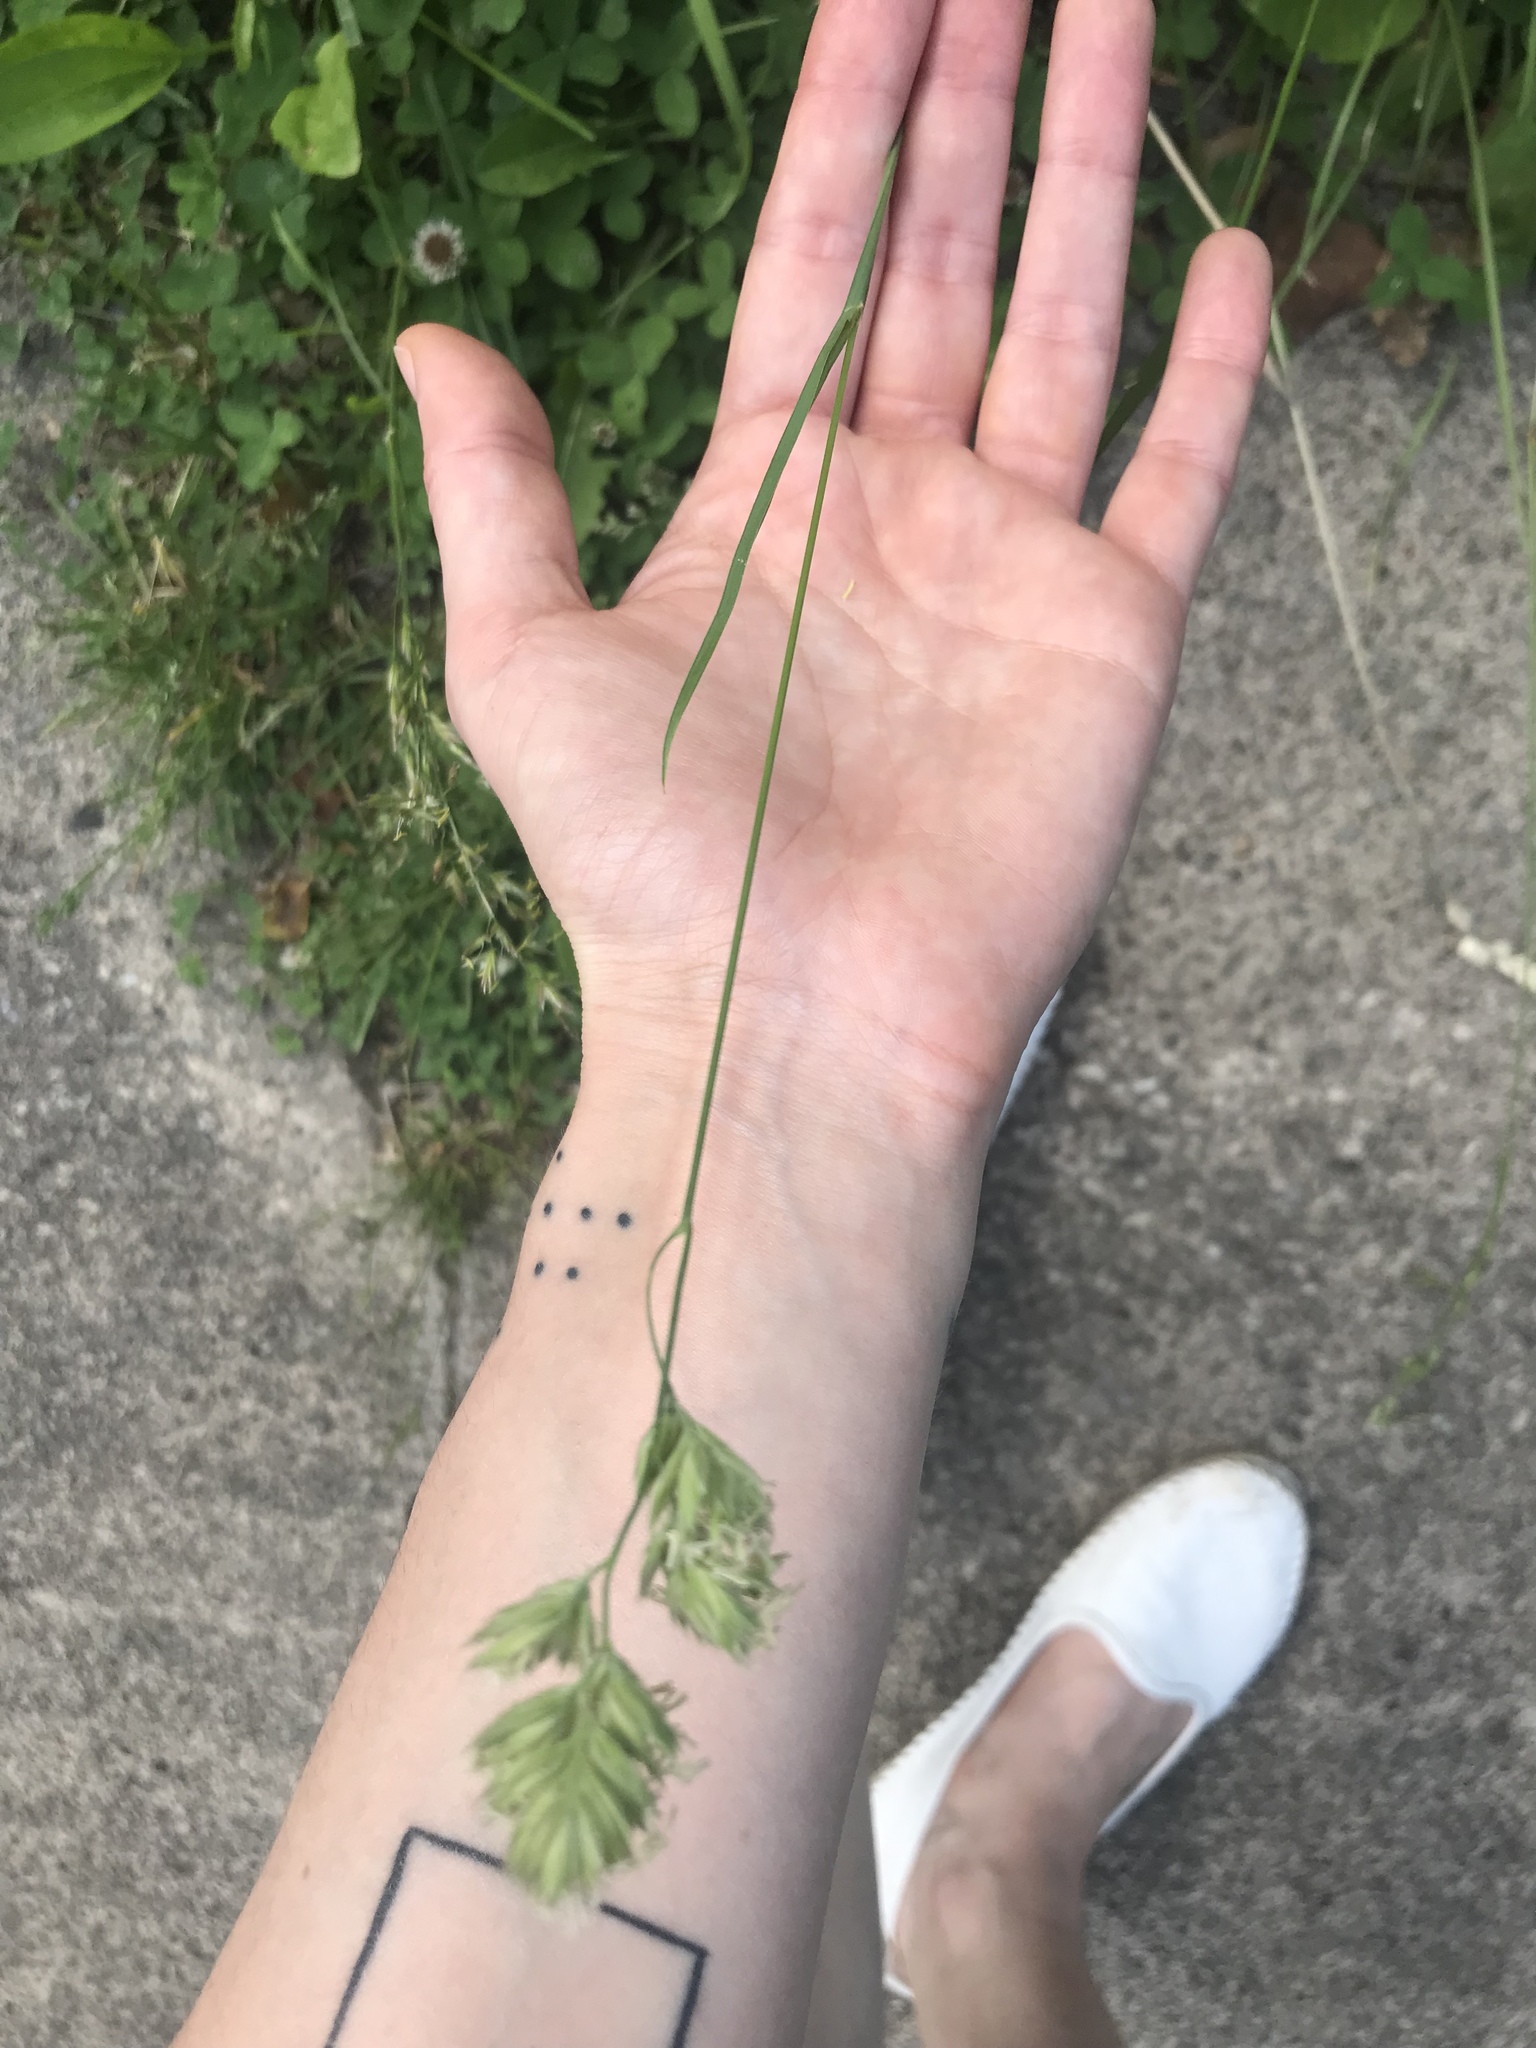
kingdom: Plantae
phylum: Tracheophyta
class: Liliopsida
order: Poales
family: Poaceae
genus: Dactylis
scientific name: Dactylis glomerata
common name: Orchardgrass
